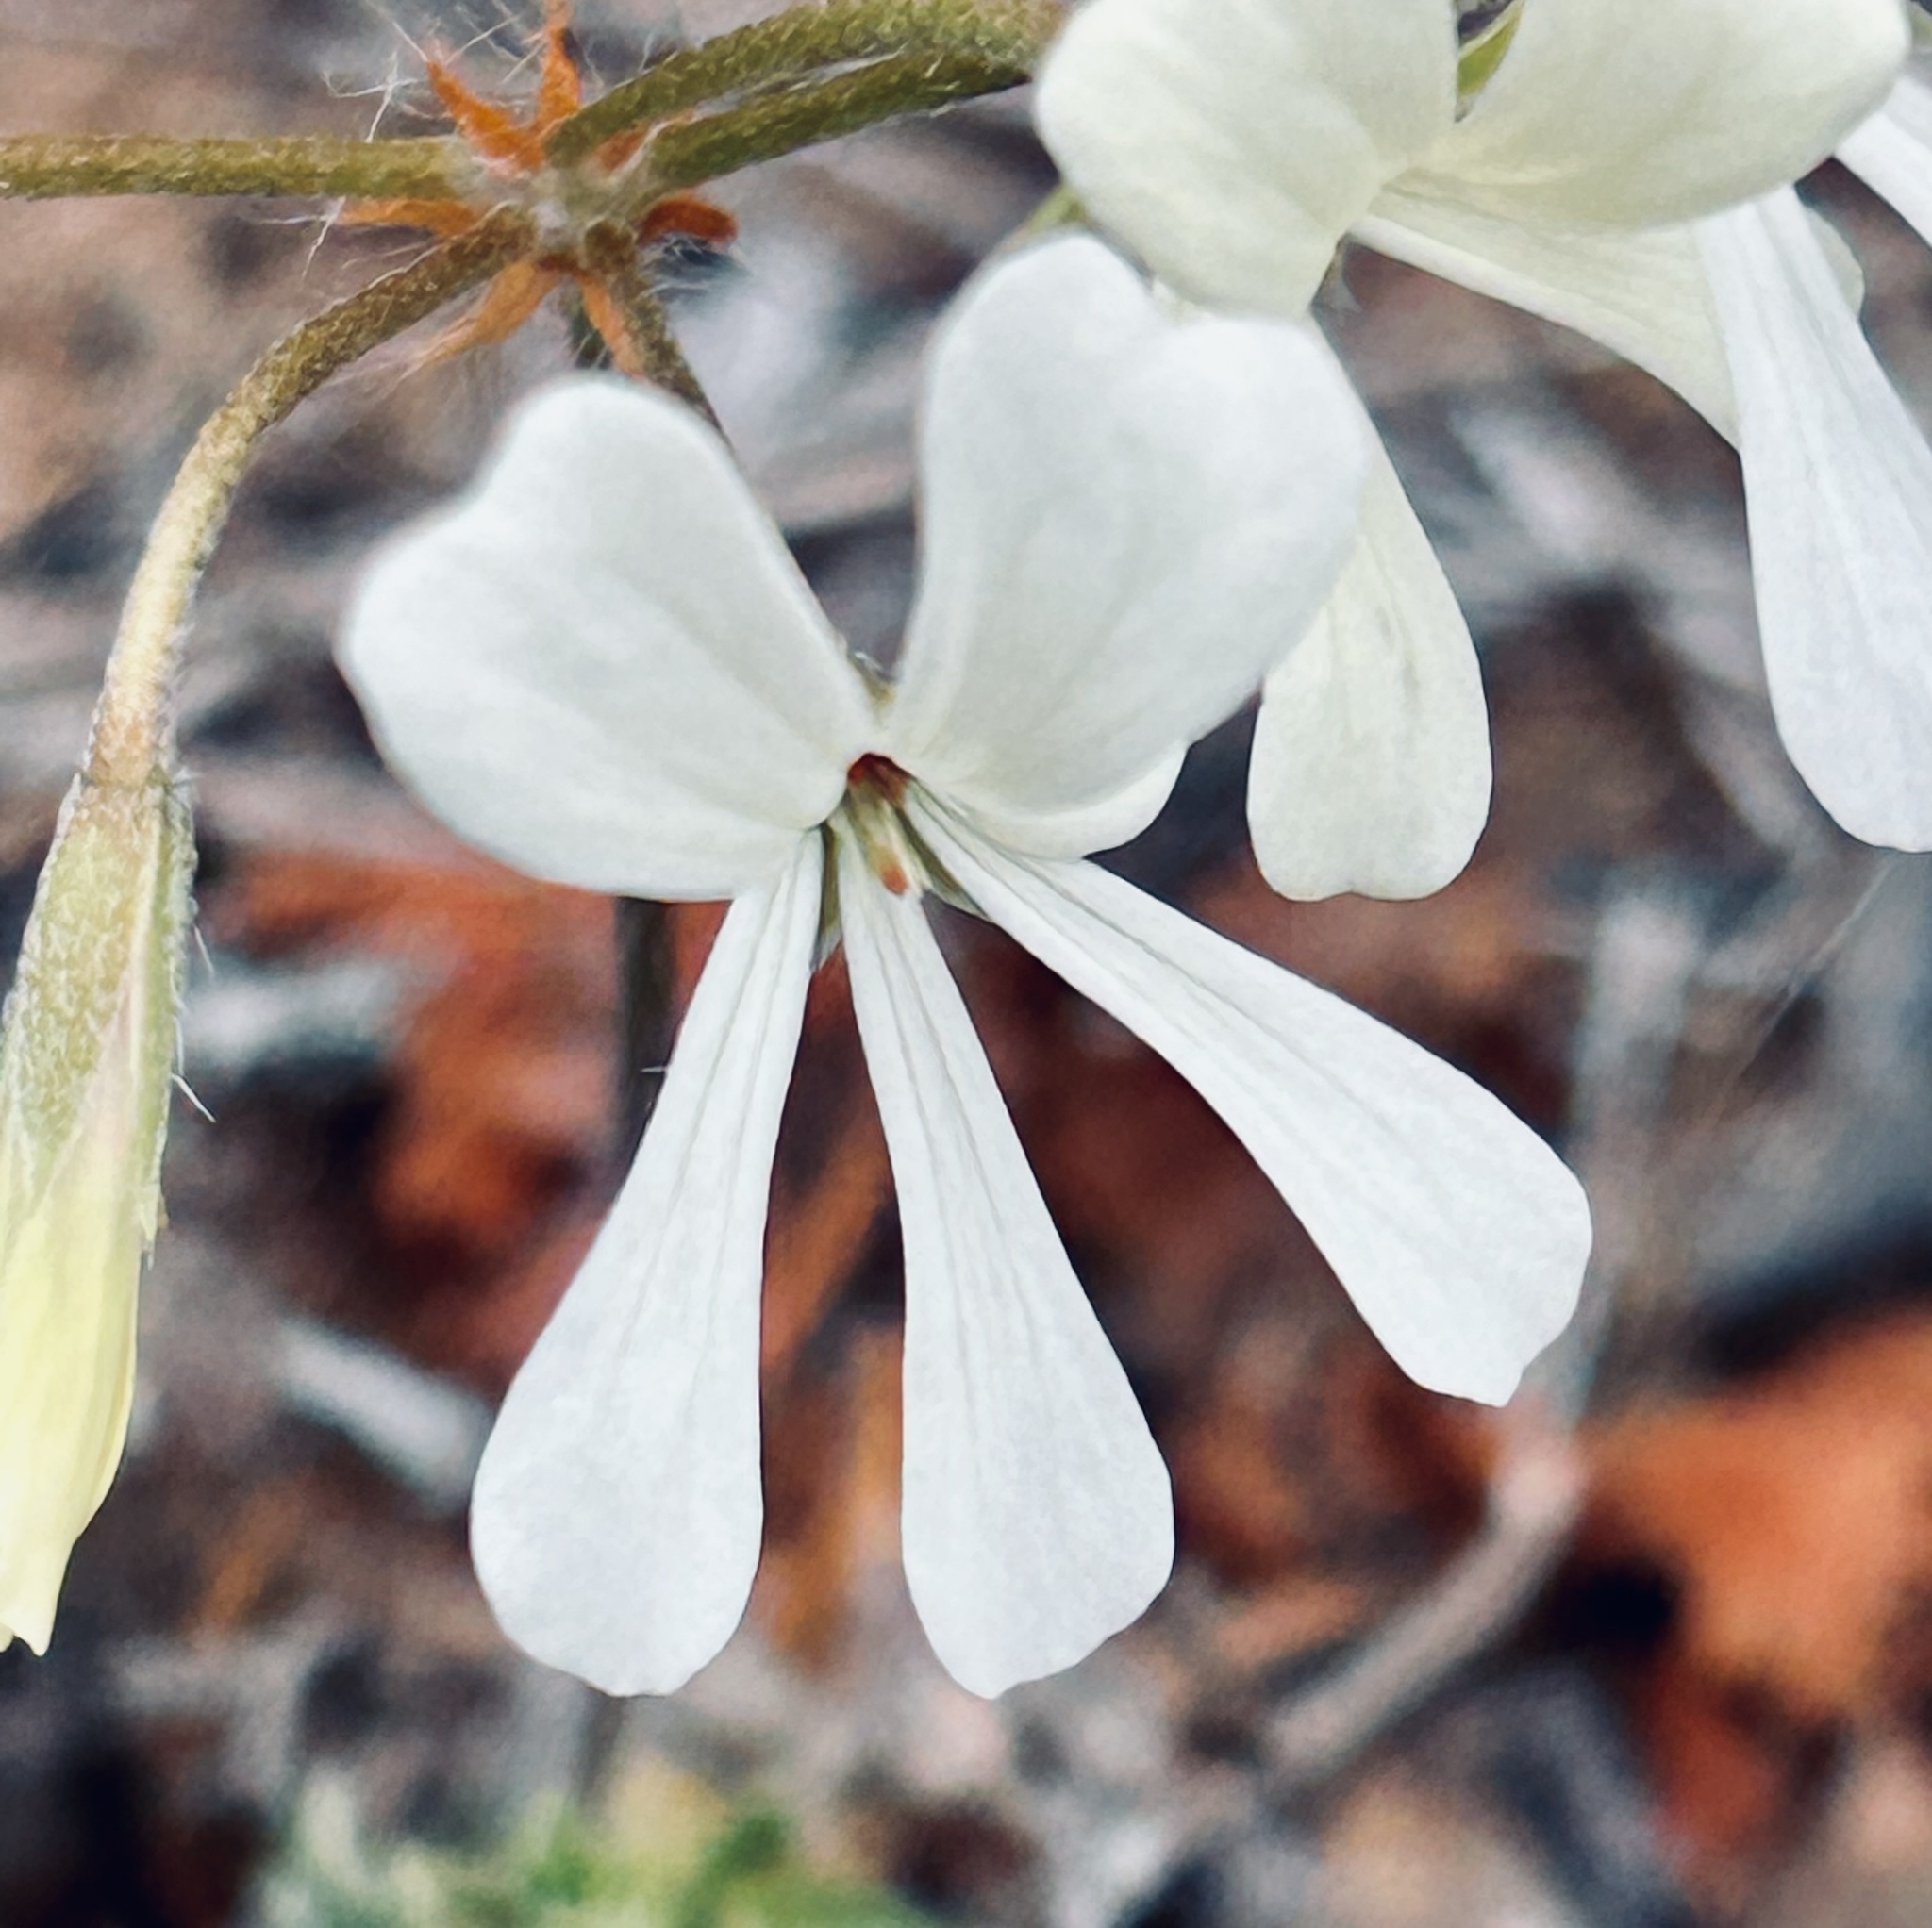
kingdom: Plantae
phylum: Tracheophyta
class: Magnoliopsida
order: Geraniales
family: Geraniaceae
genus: Pelargonium
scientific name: Pelargonium alchemilloides
